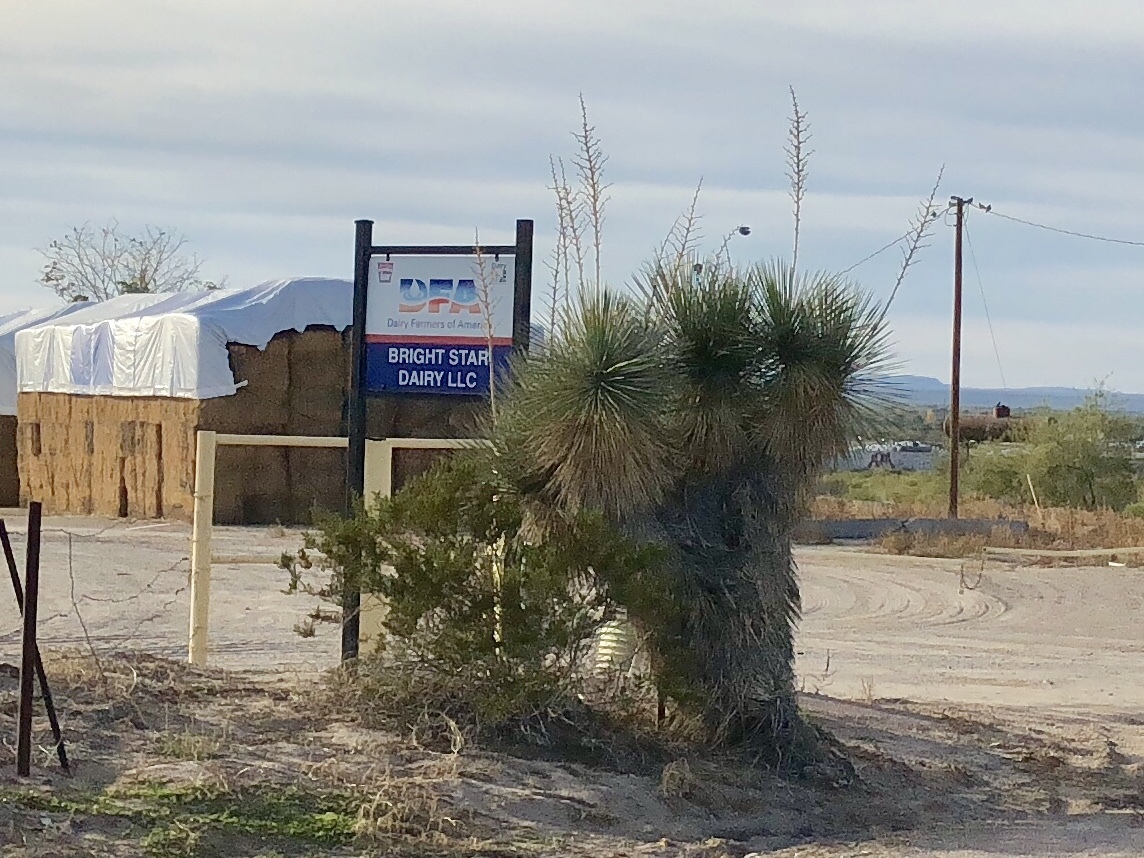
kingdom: Plantae
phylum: Tracheophyta
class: Liliopsida
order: Asparagales
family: Asparagaceae
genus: Yucca
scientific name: Yucca elata
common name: Palmella
